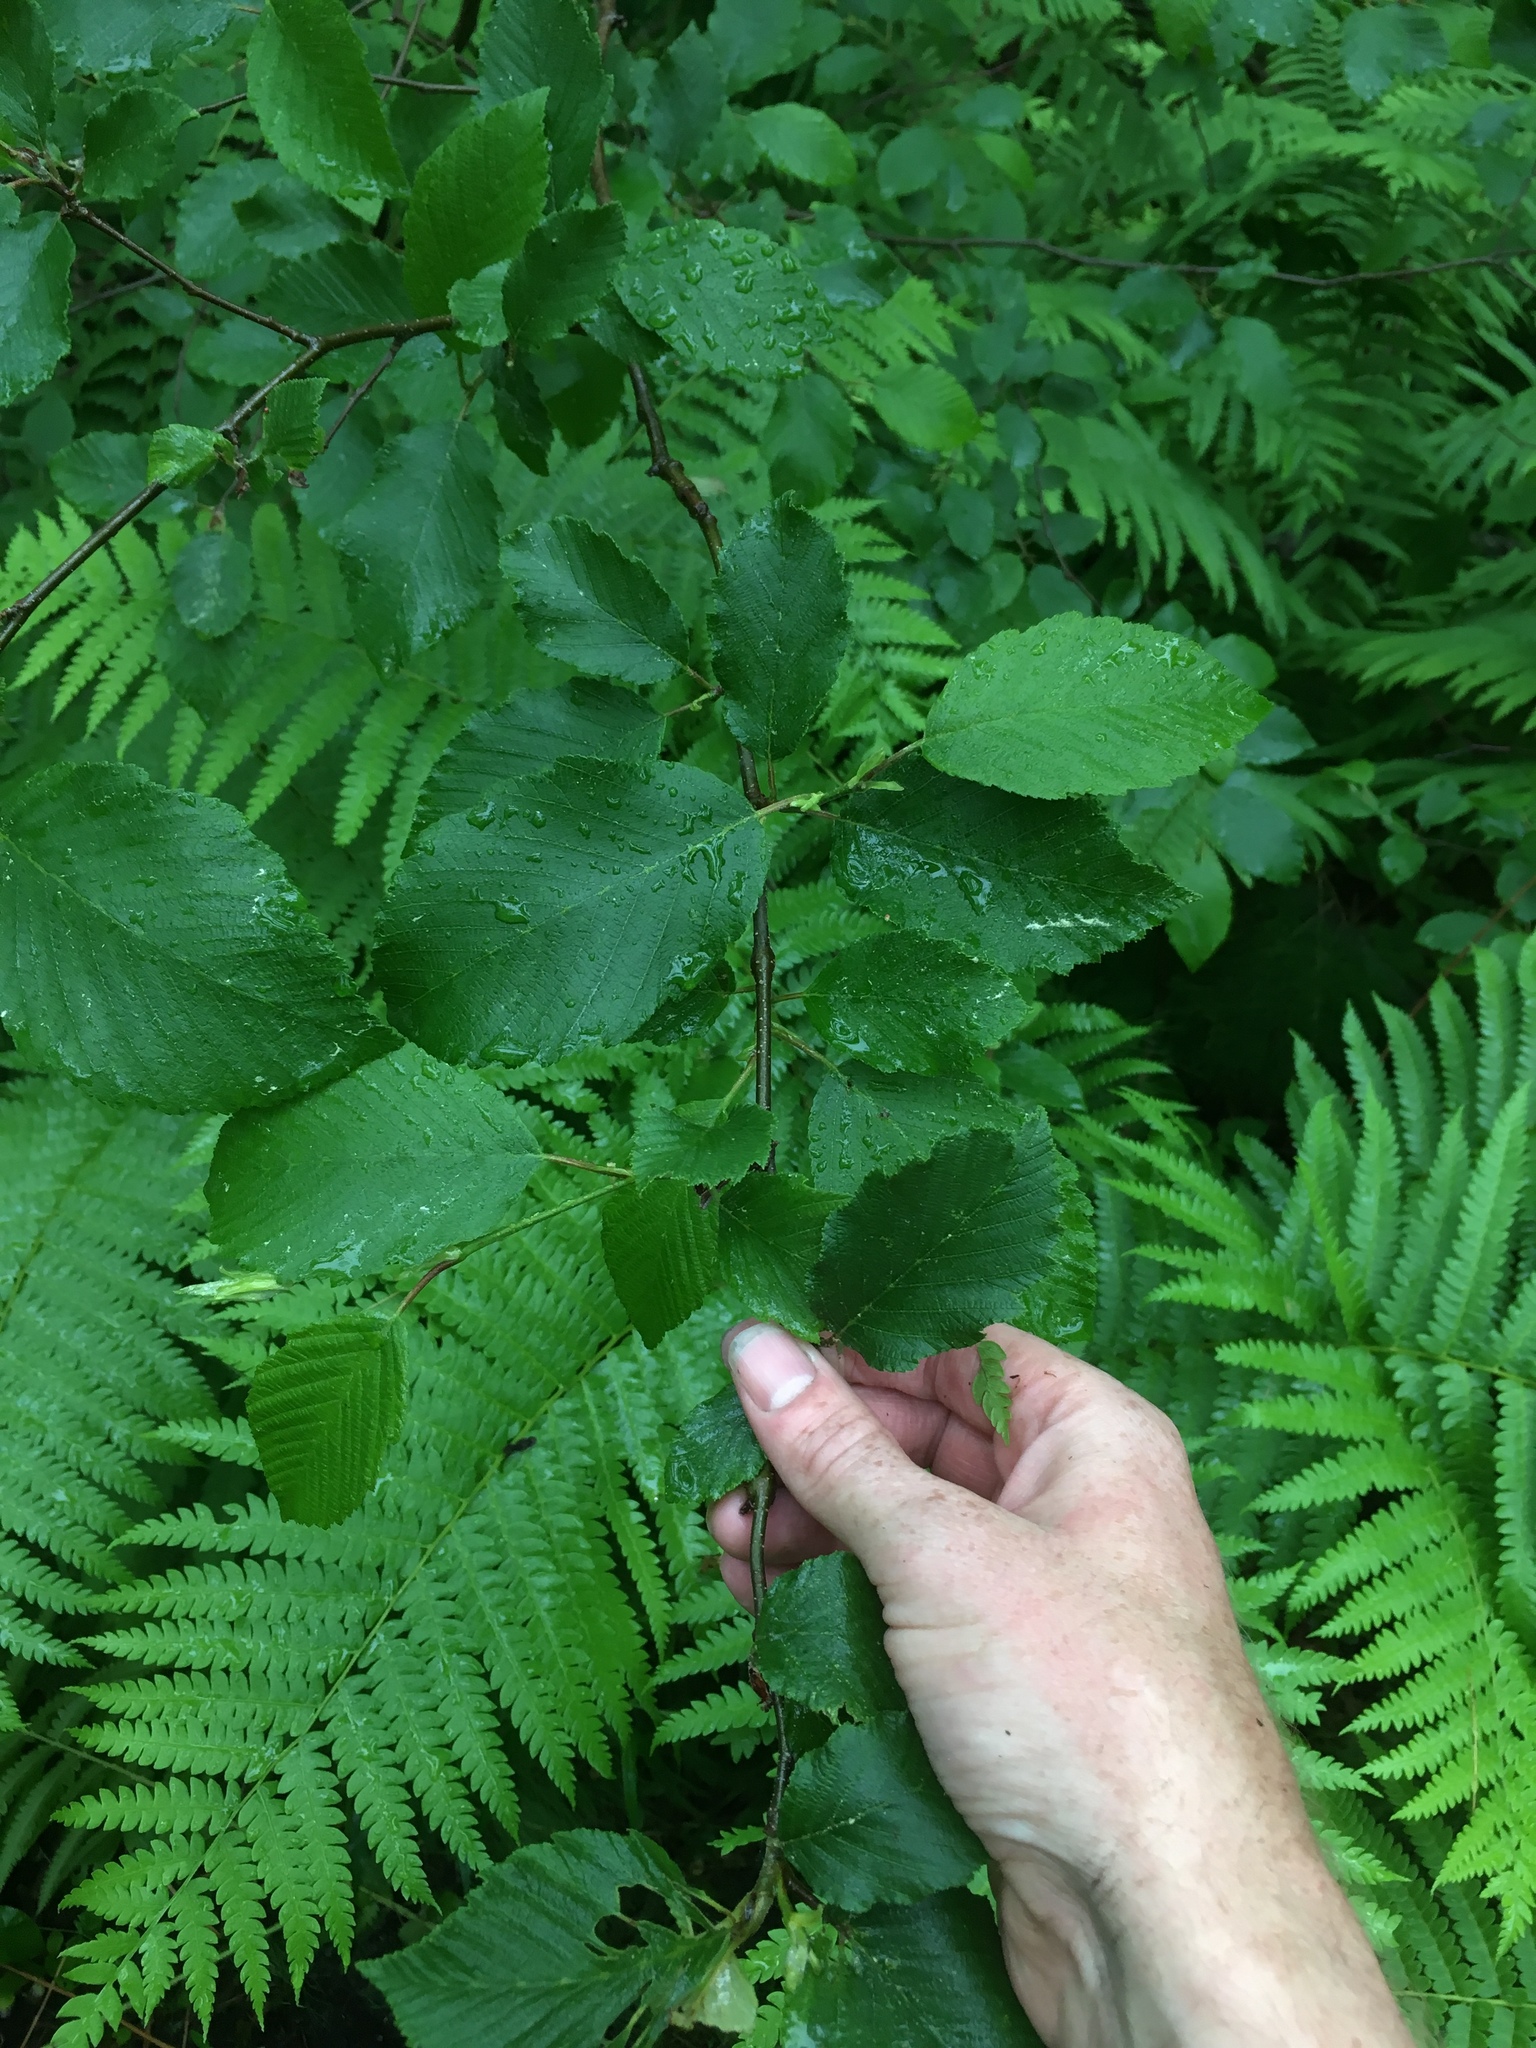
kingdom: Plantae
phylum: Tracheophyta
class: Magnoliopsida
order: Fagales
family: Betulaceae
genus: Alnus
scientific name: Alnus incana
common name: Grey alder
